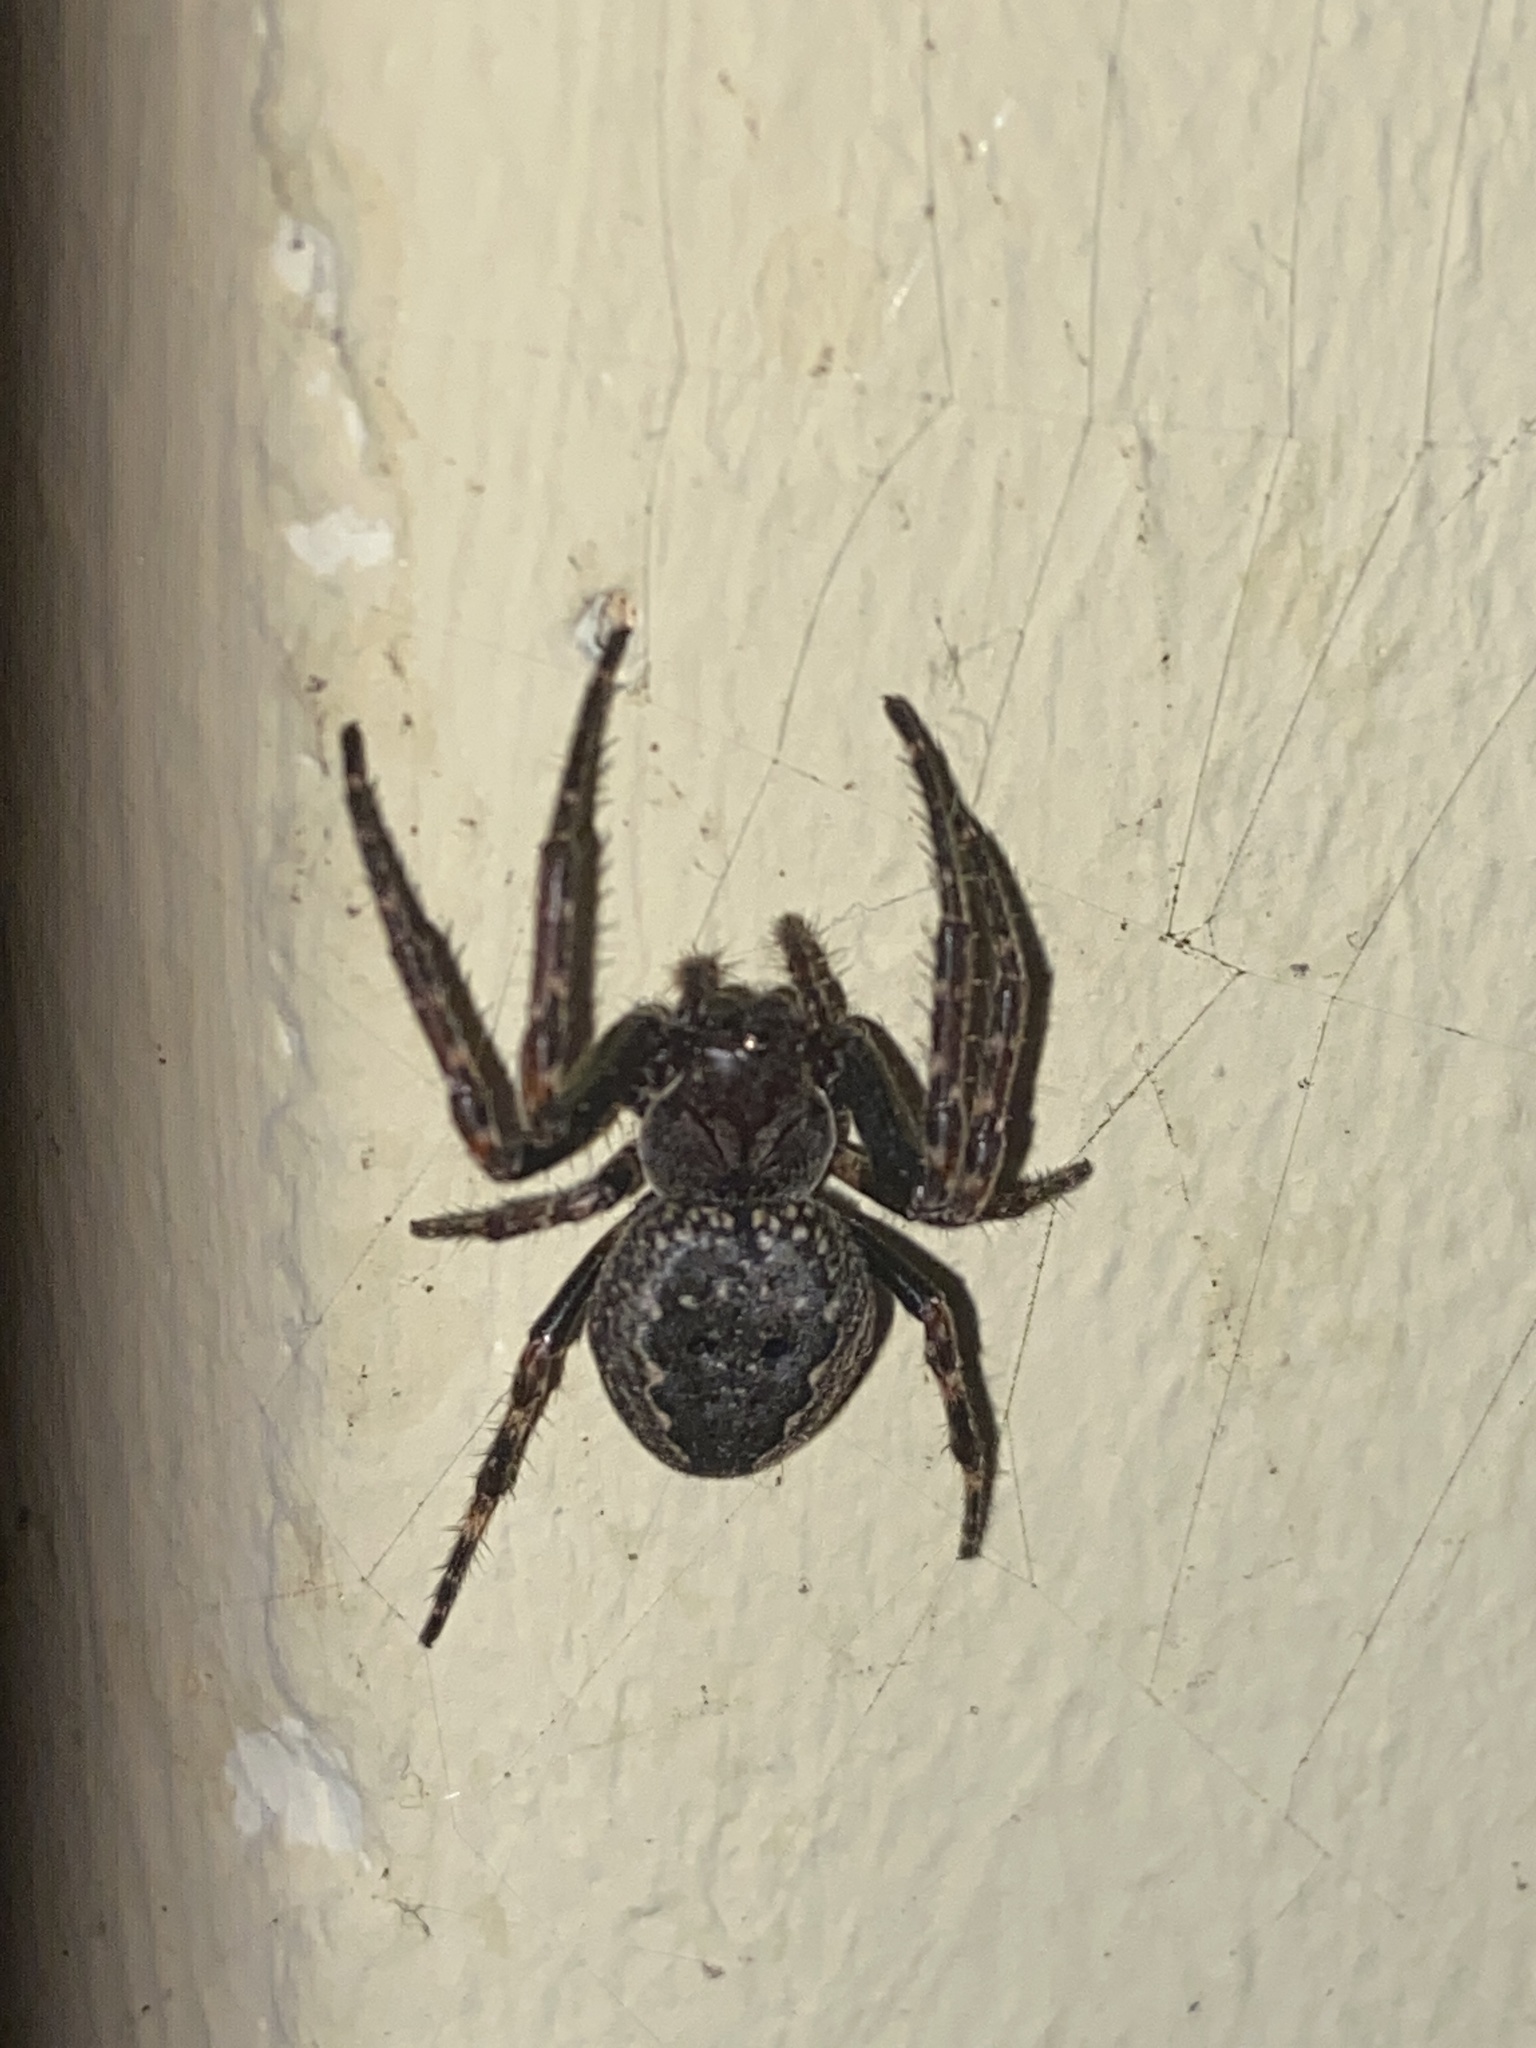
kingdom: Animalia
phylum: Arthropoda
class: Arachnida
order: Araneae
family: Araneidae
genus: Nuctenea
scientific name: Nuctenea umbratica
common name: Toad spider
